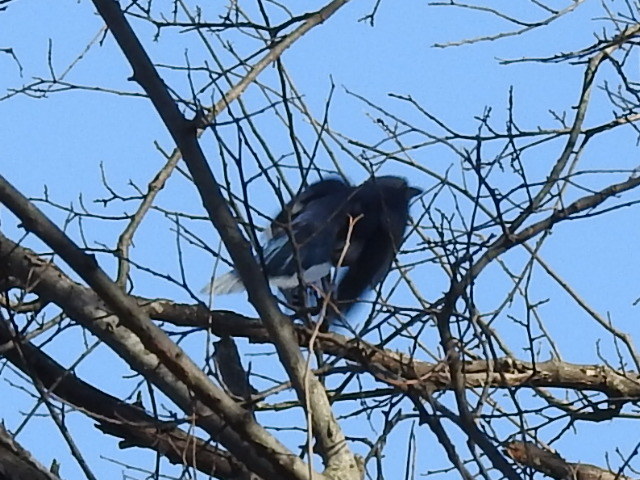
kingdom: Animalia
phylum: Chordata
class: Aves
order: Passeriformes
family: Corvidae
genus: Cyanocitta
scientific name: Cyanocitta cristata
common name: Blue jay
